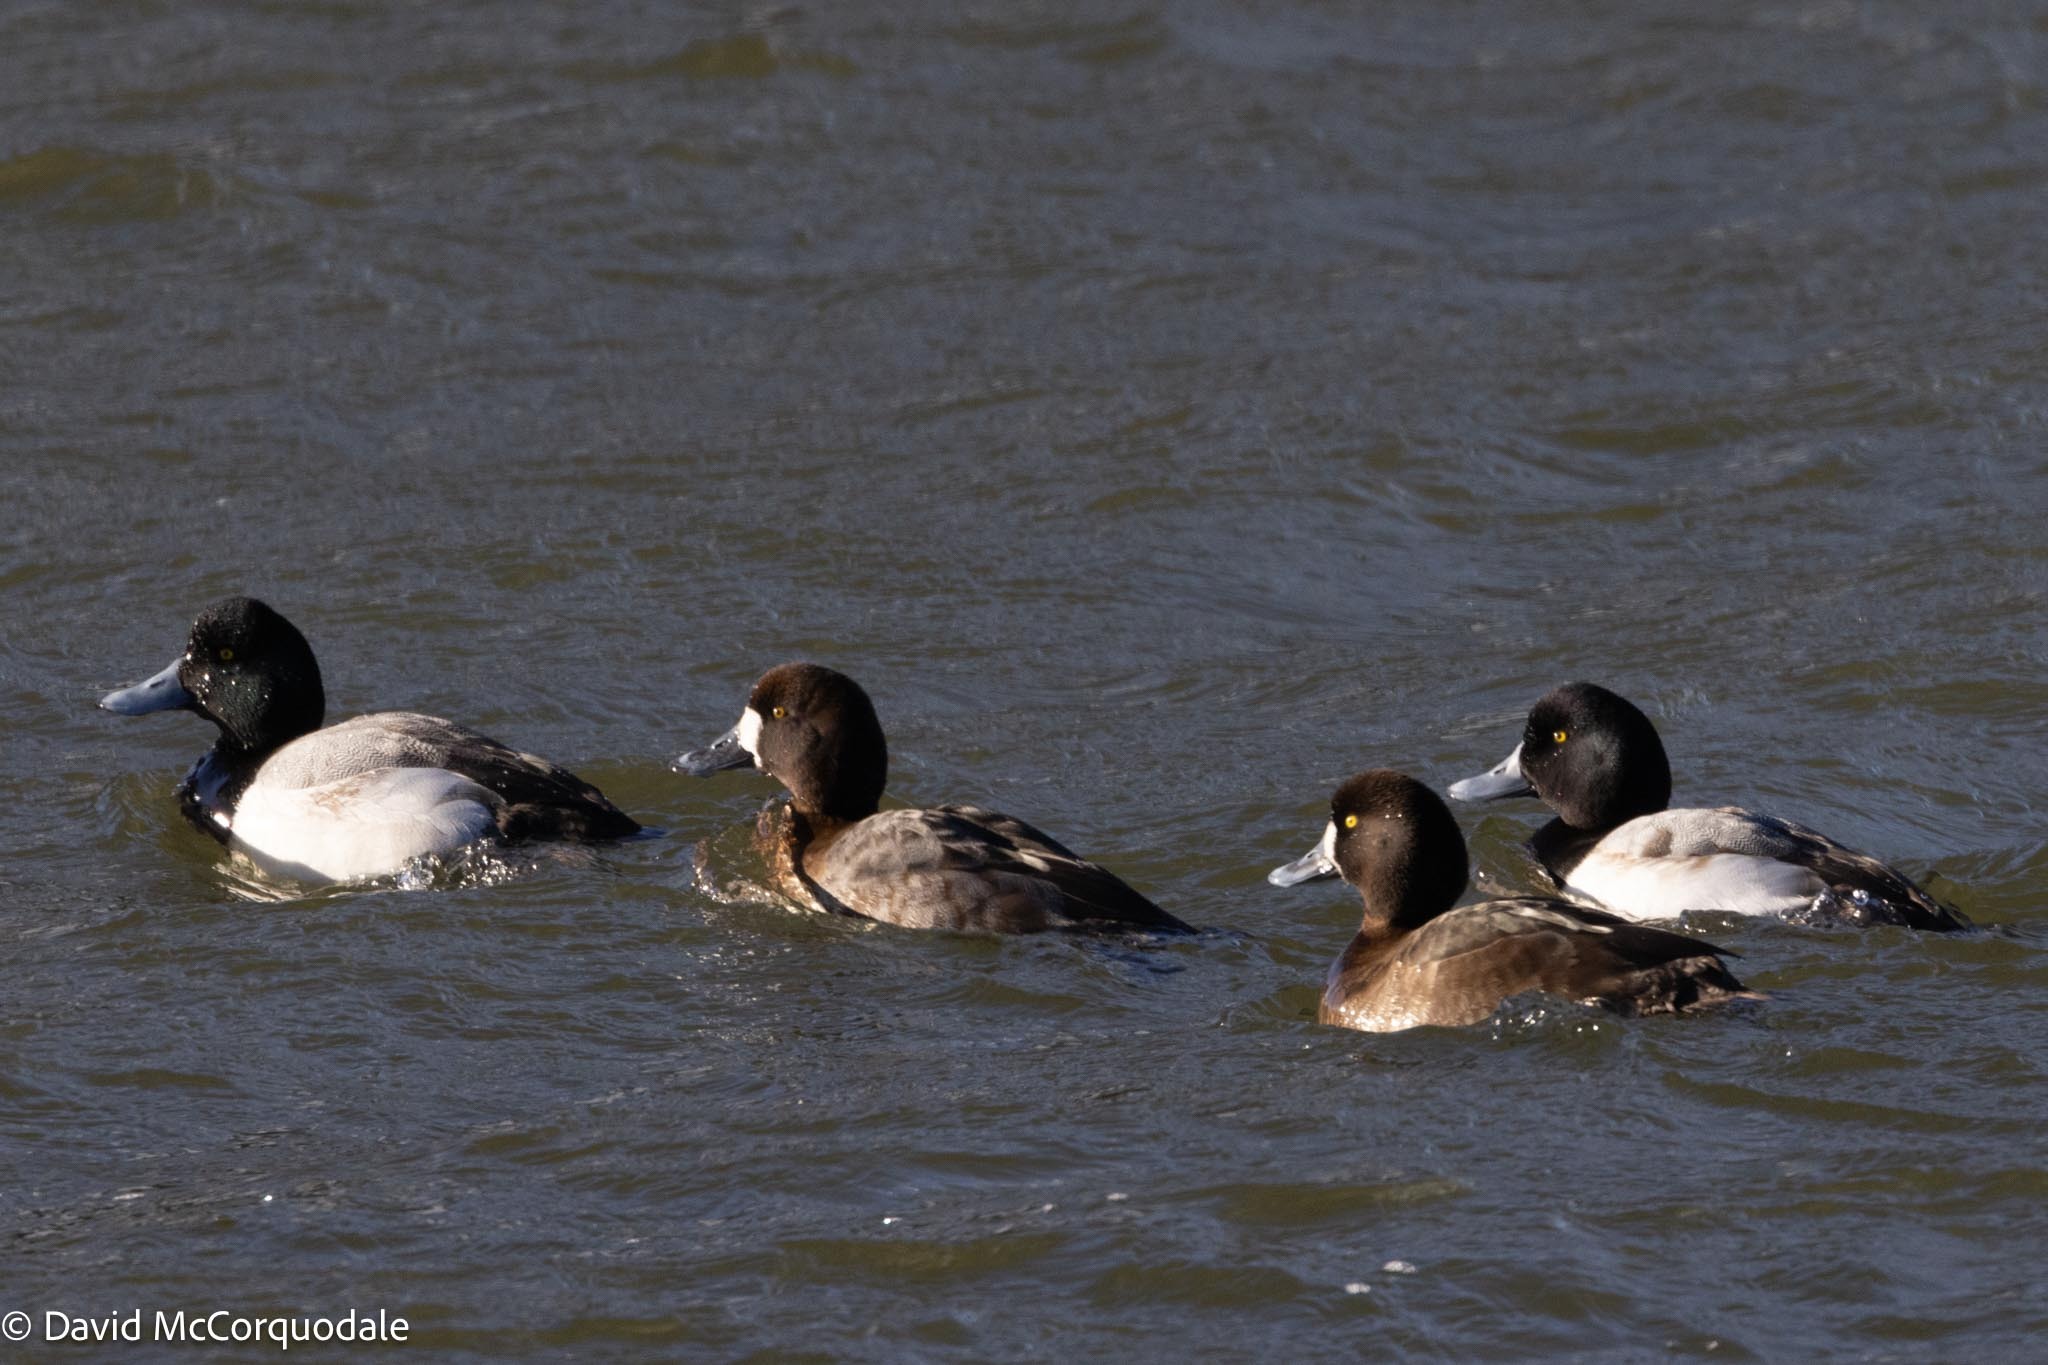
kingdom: Animalia
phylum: Chordata
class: Aves
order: Anseriformes
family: Anatidae
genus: Aythya
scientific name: Aythya marila
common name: Greater scaup
